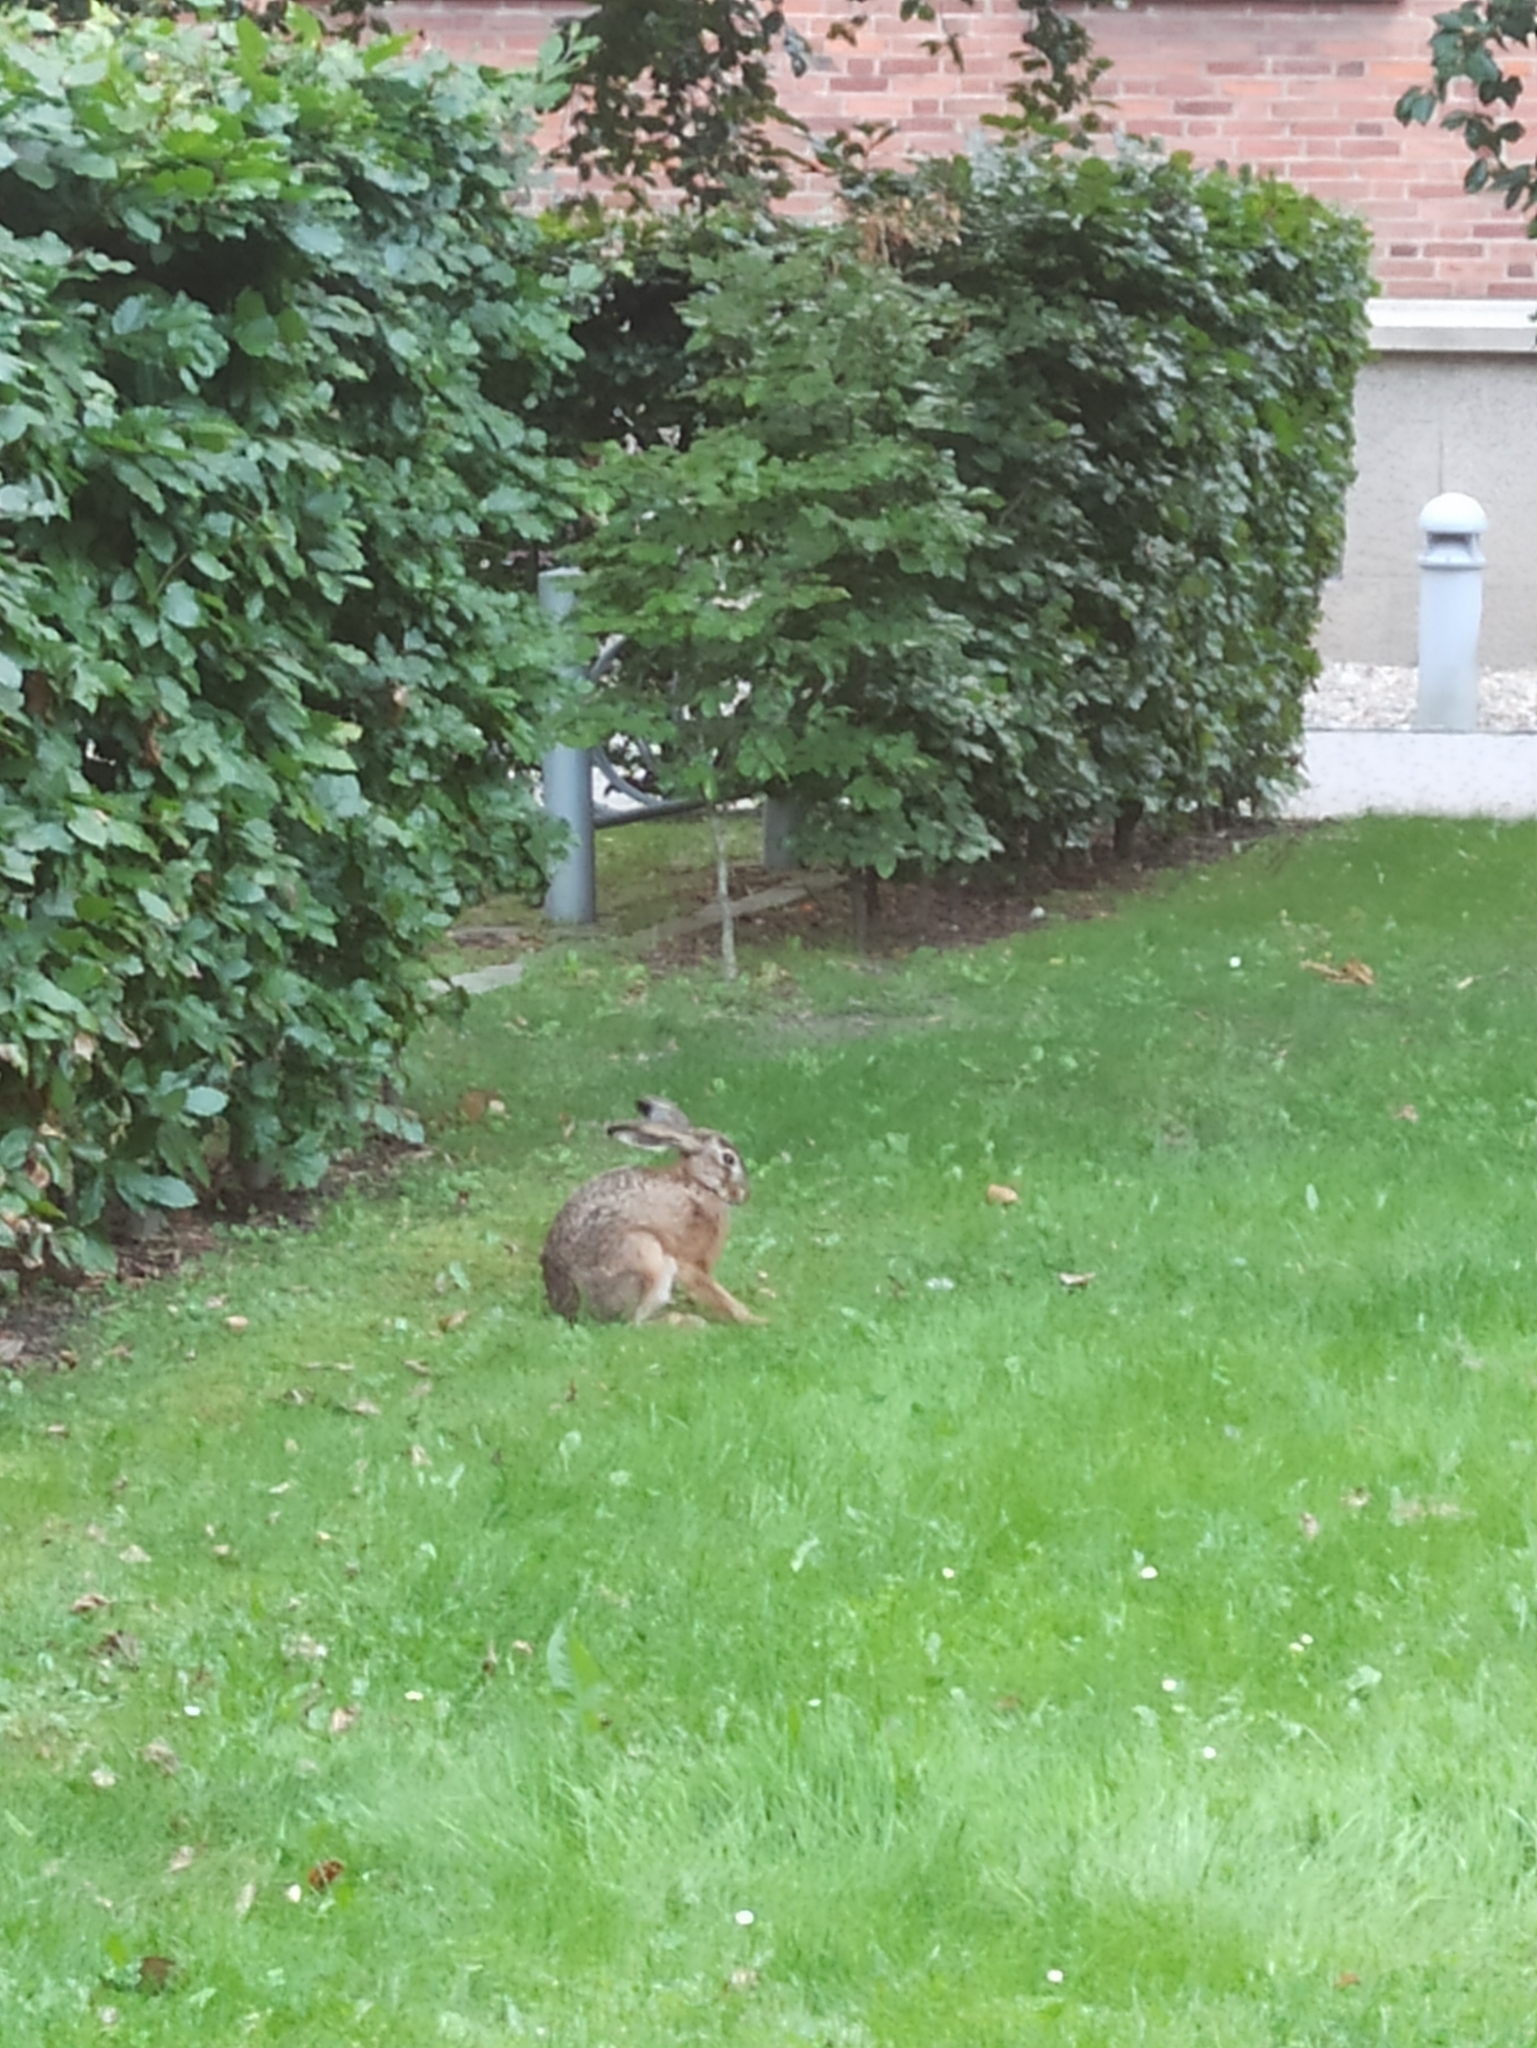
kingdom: Animalia
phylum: Chordata
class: Mammalia
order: Lagomorpha
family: Leporidae
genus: Lepus
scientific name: Lepus europaeus
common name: European hare
